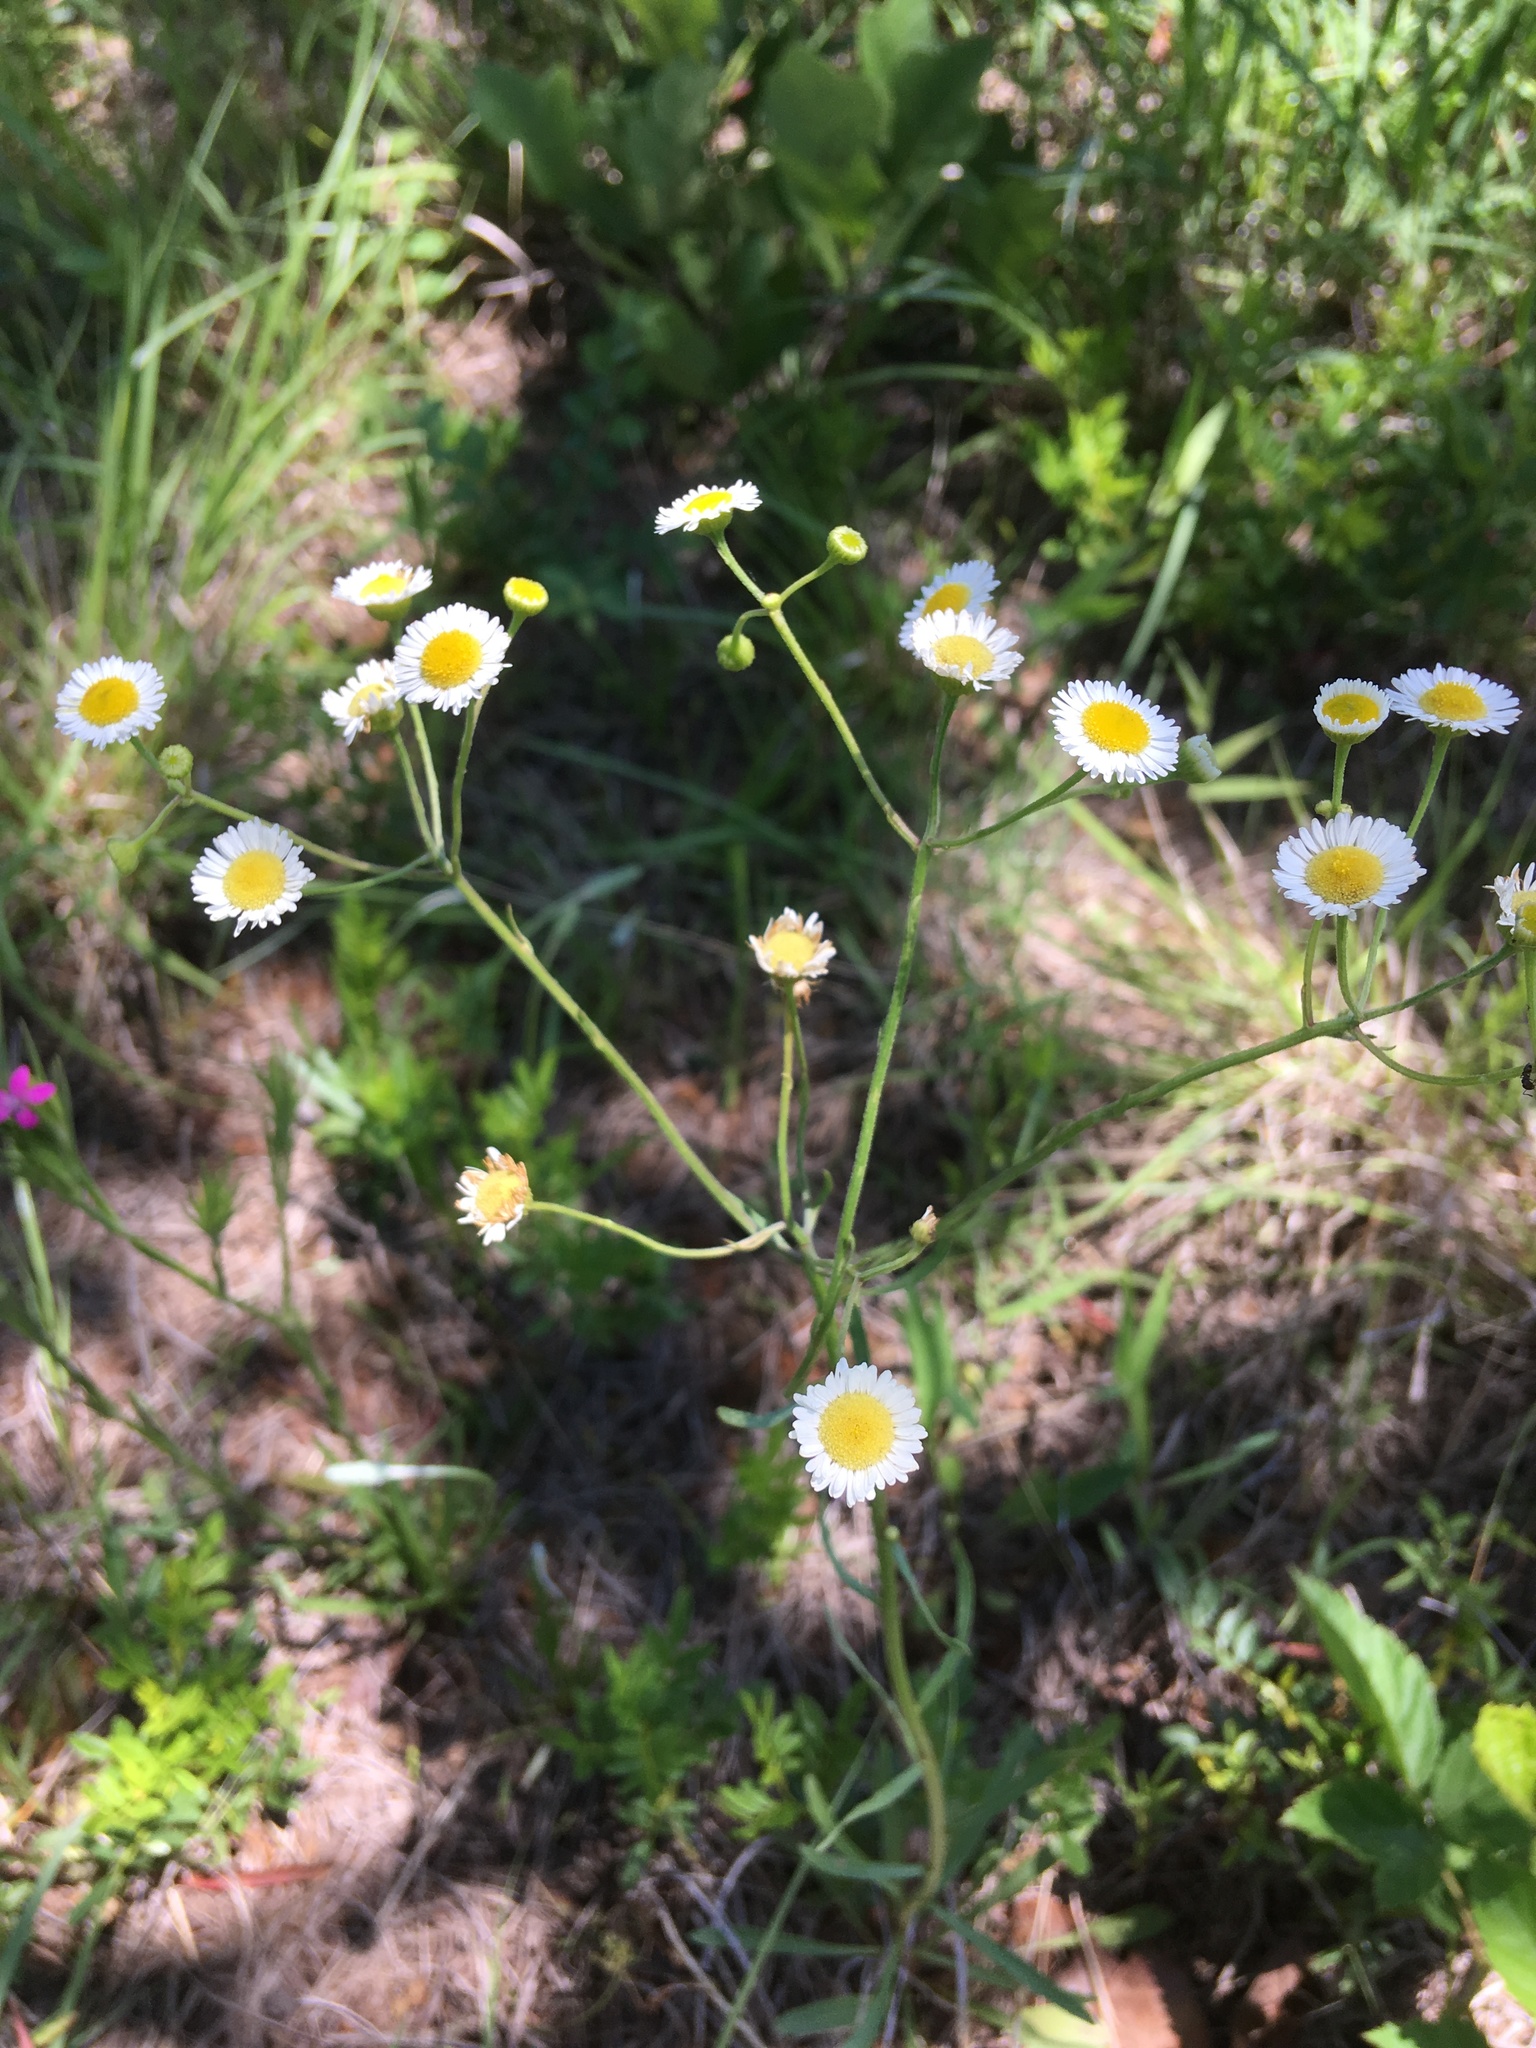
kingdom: Plantae
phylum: Tracheophyta
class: Magnoliopsida
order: Asterales
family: Asteraceae
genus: Erigeron
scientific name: Erigeron strigosus
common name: Common eastern fleabane
